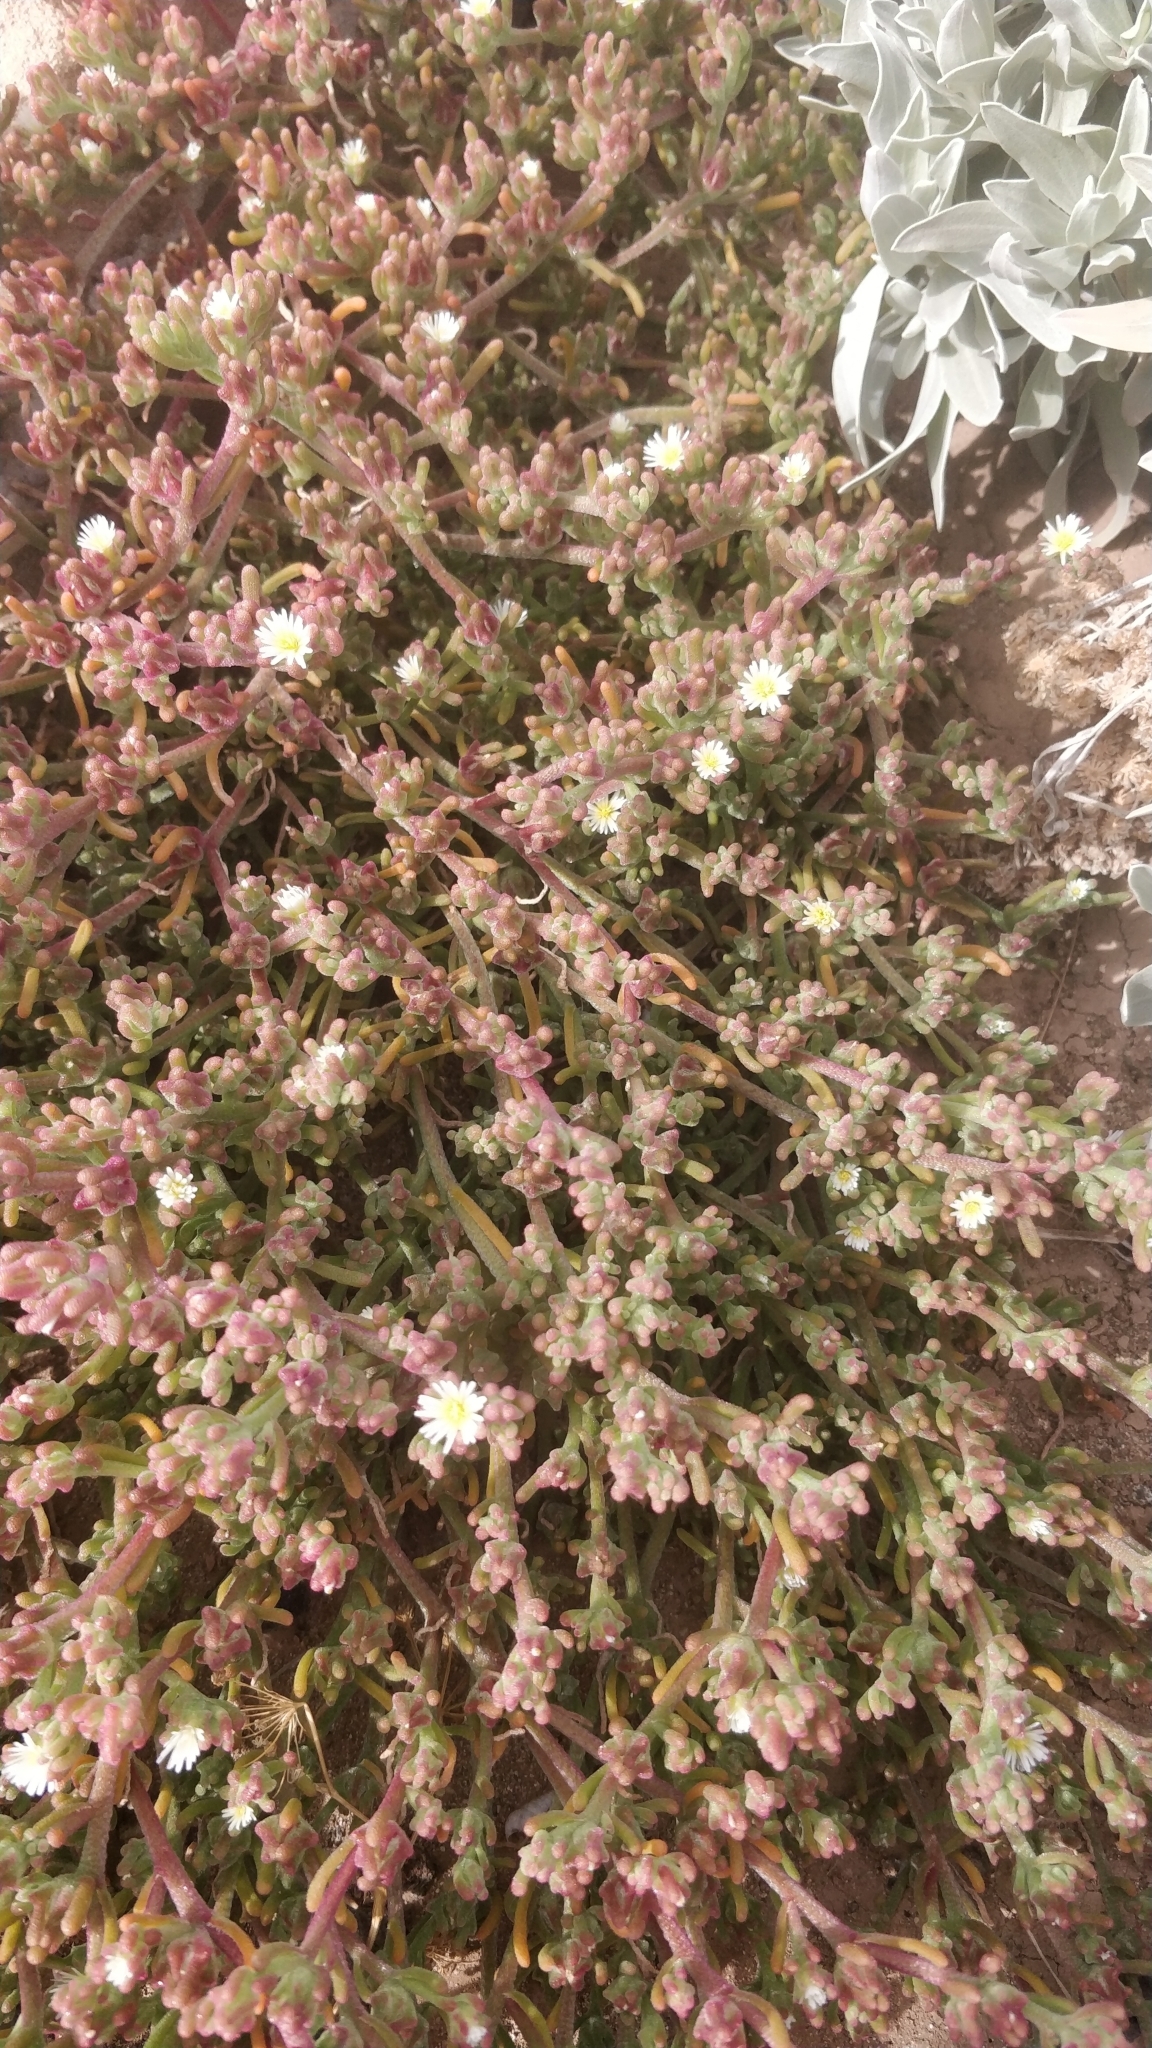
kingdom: Plantae
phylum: Tracheophyta
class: Magnoliopsida
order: Caryophyllales
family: Aizoaceae
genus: Mesembryanthemum
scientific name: Mesembryanthemum nodiflorum
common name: Slenderleaf iceplant
